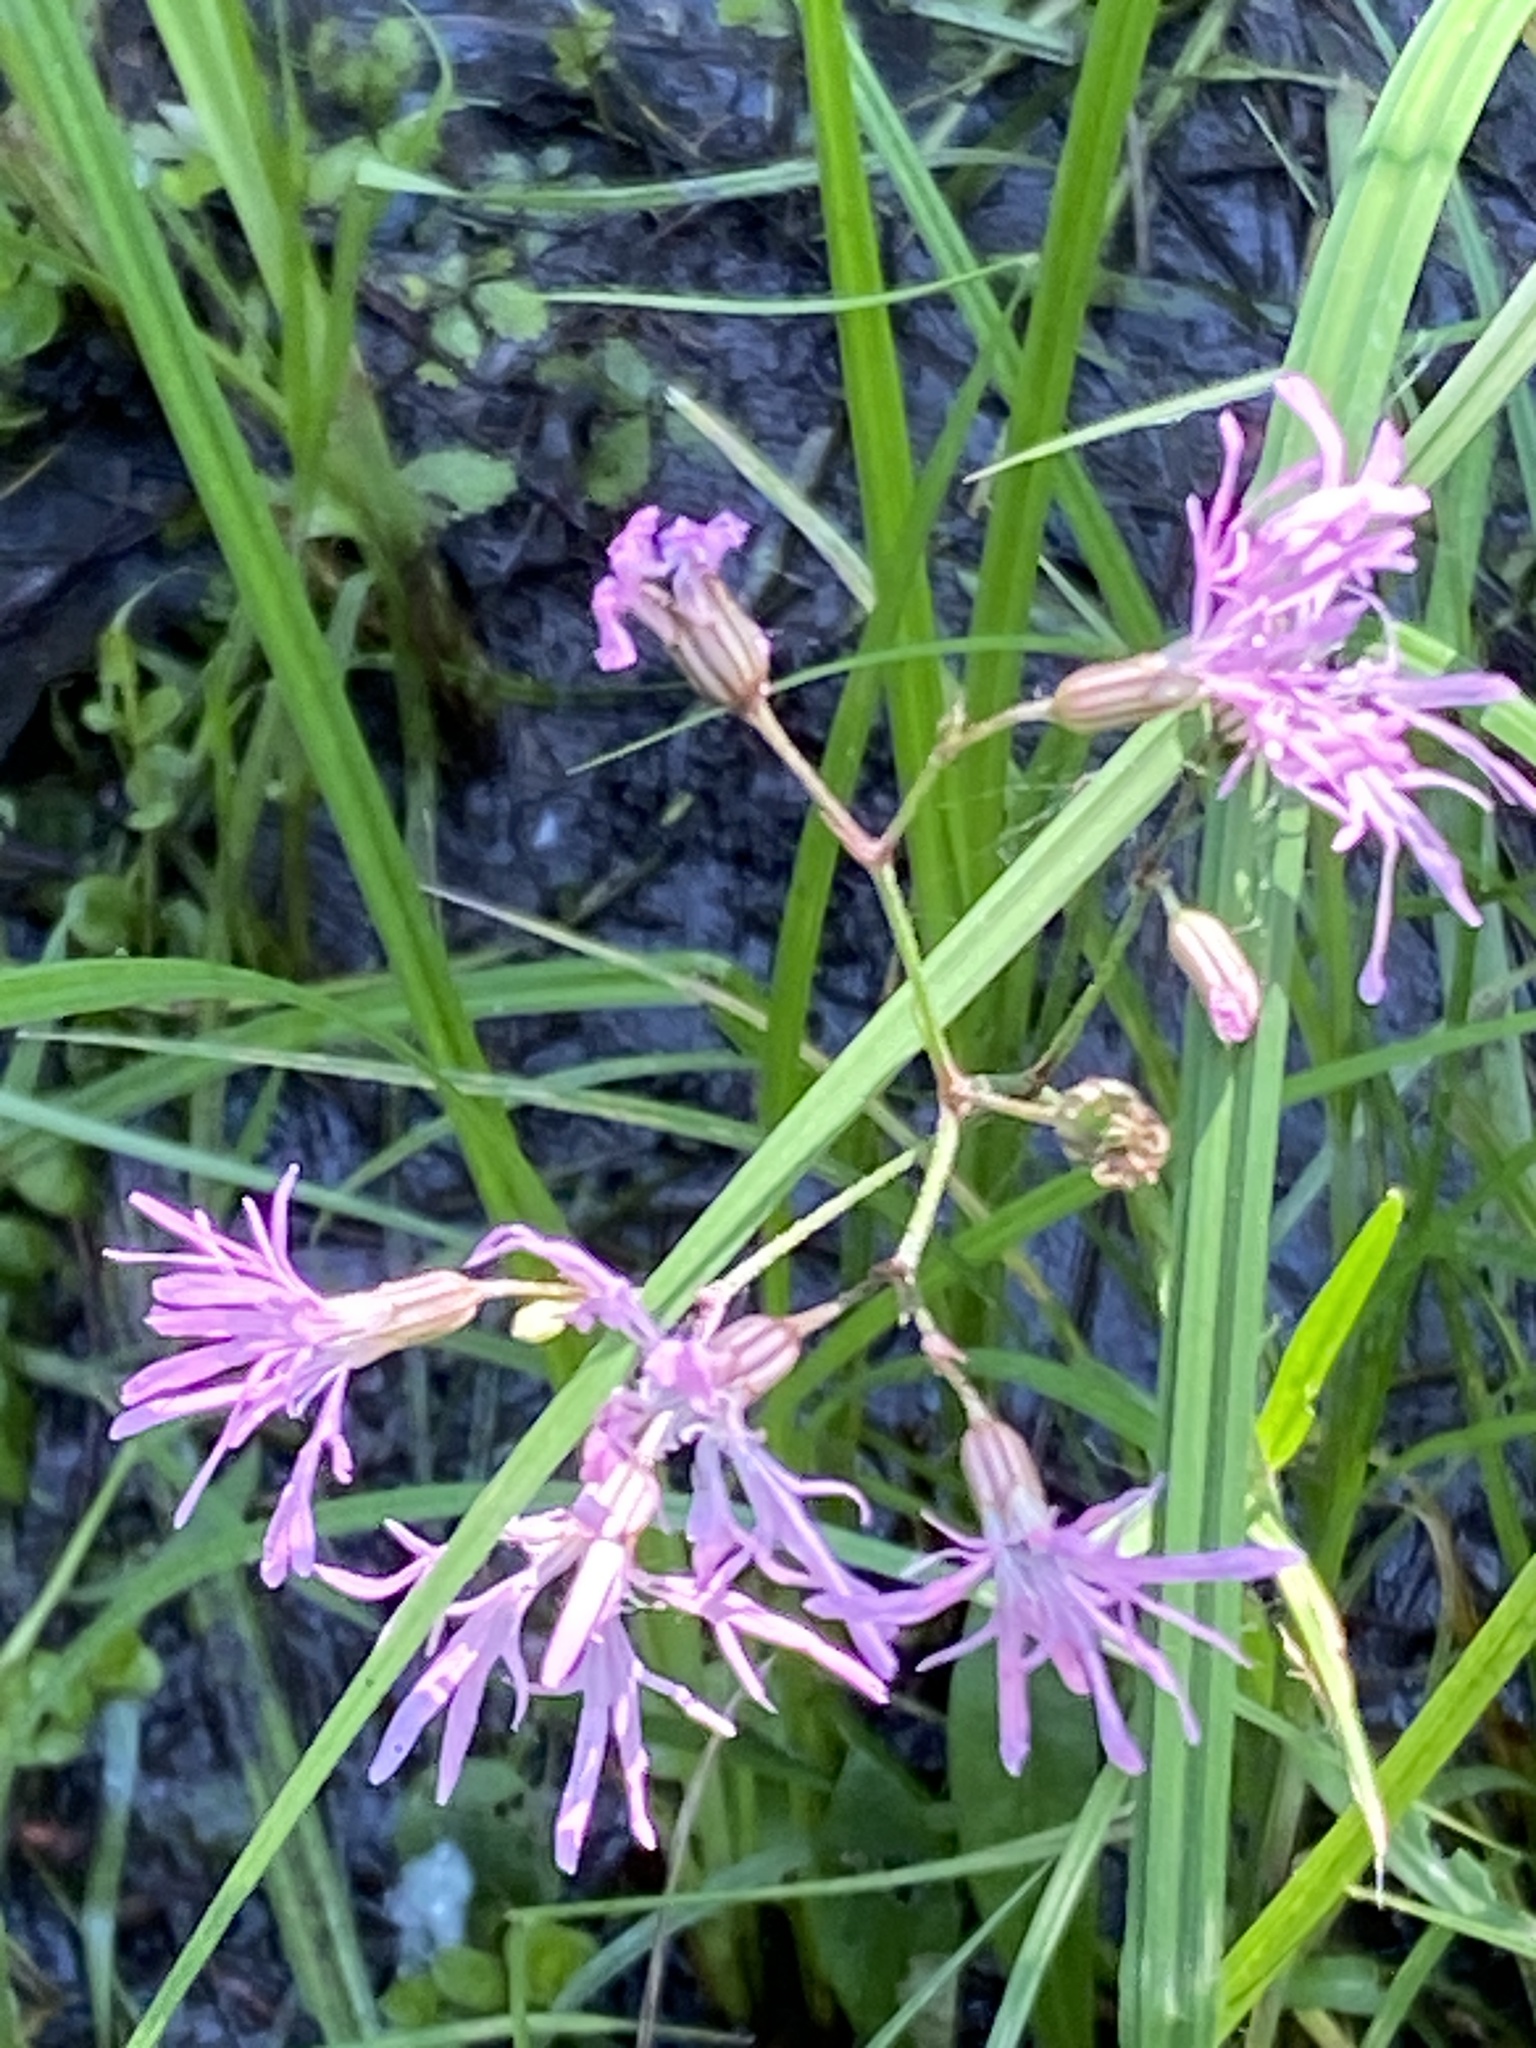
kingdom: Plantae
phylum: Tracheophyta
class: Magnoliopsida
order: Caryophyllales
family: Caryophyllaceae
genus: Silene
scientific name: Silene flos-cuculi
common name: Ragged-robin
